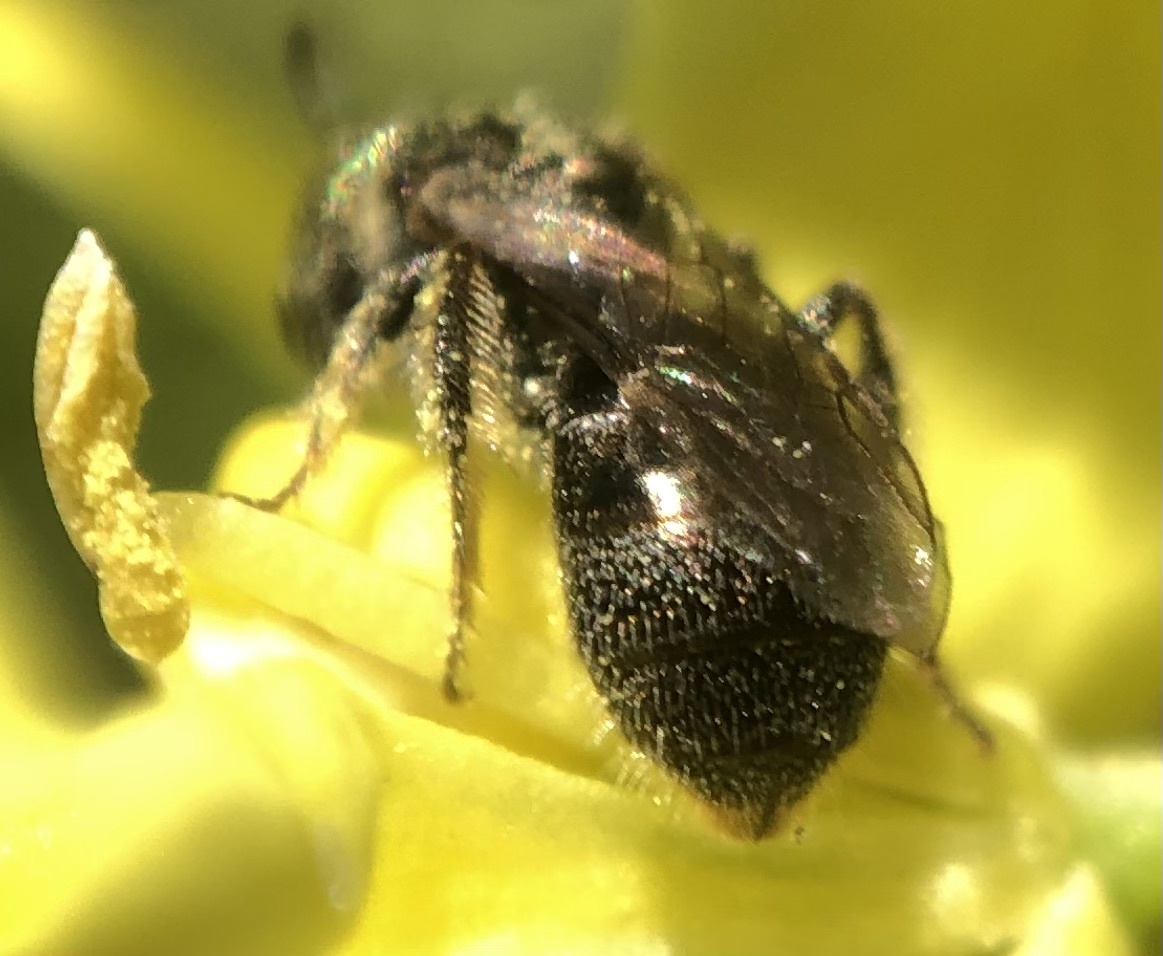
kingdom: Animalia
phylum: Arthropoda
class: Insecta
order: Hymenoptera
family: Halictidae
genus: Lasioglossum
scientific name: Lasioglossum imitatum
